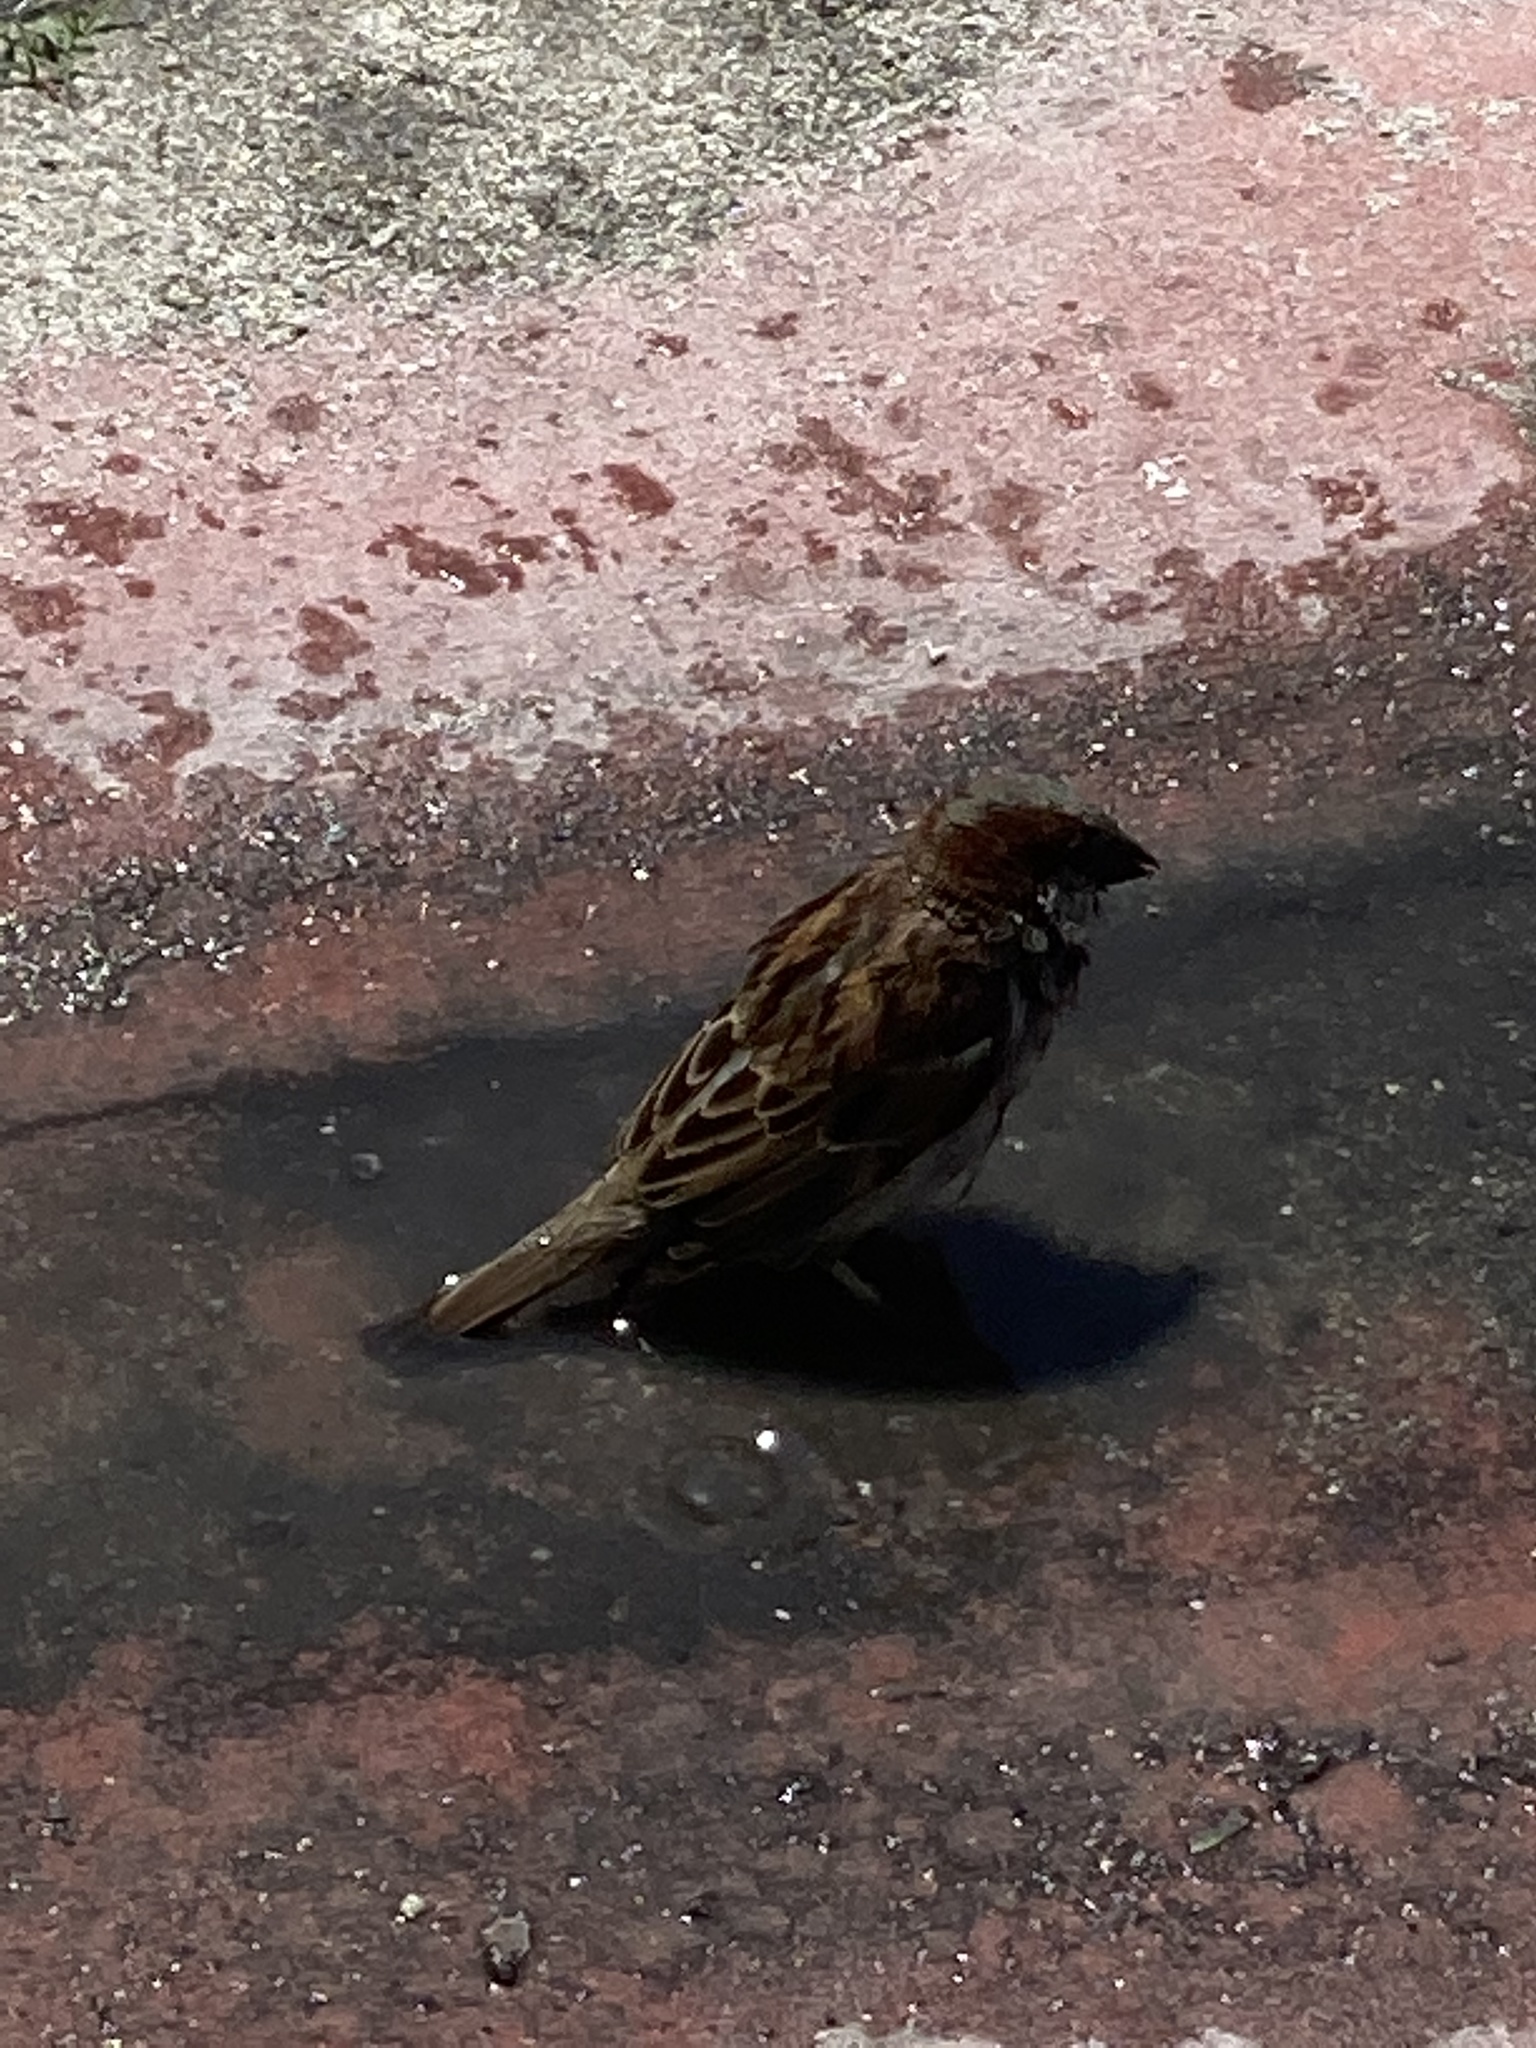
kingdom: Animalia
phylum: Chordata
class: Aves
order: Passeriformes
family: Passeridae
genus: Passer
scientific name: Passer domesticus
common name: House sparrow
